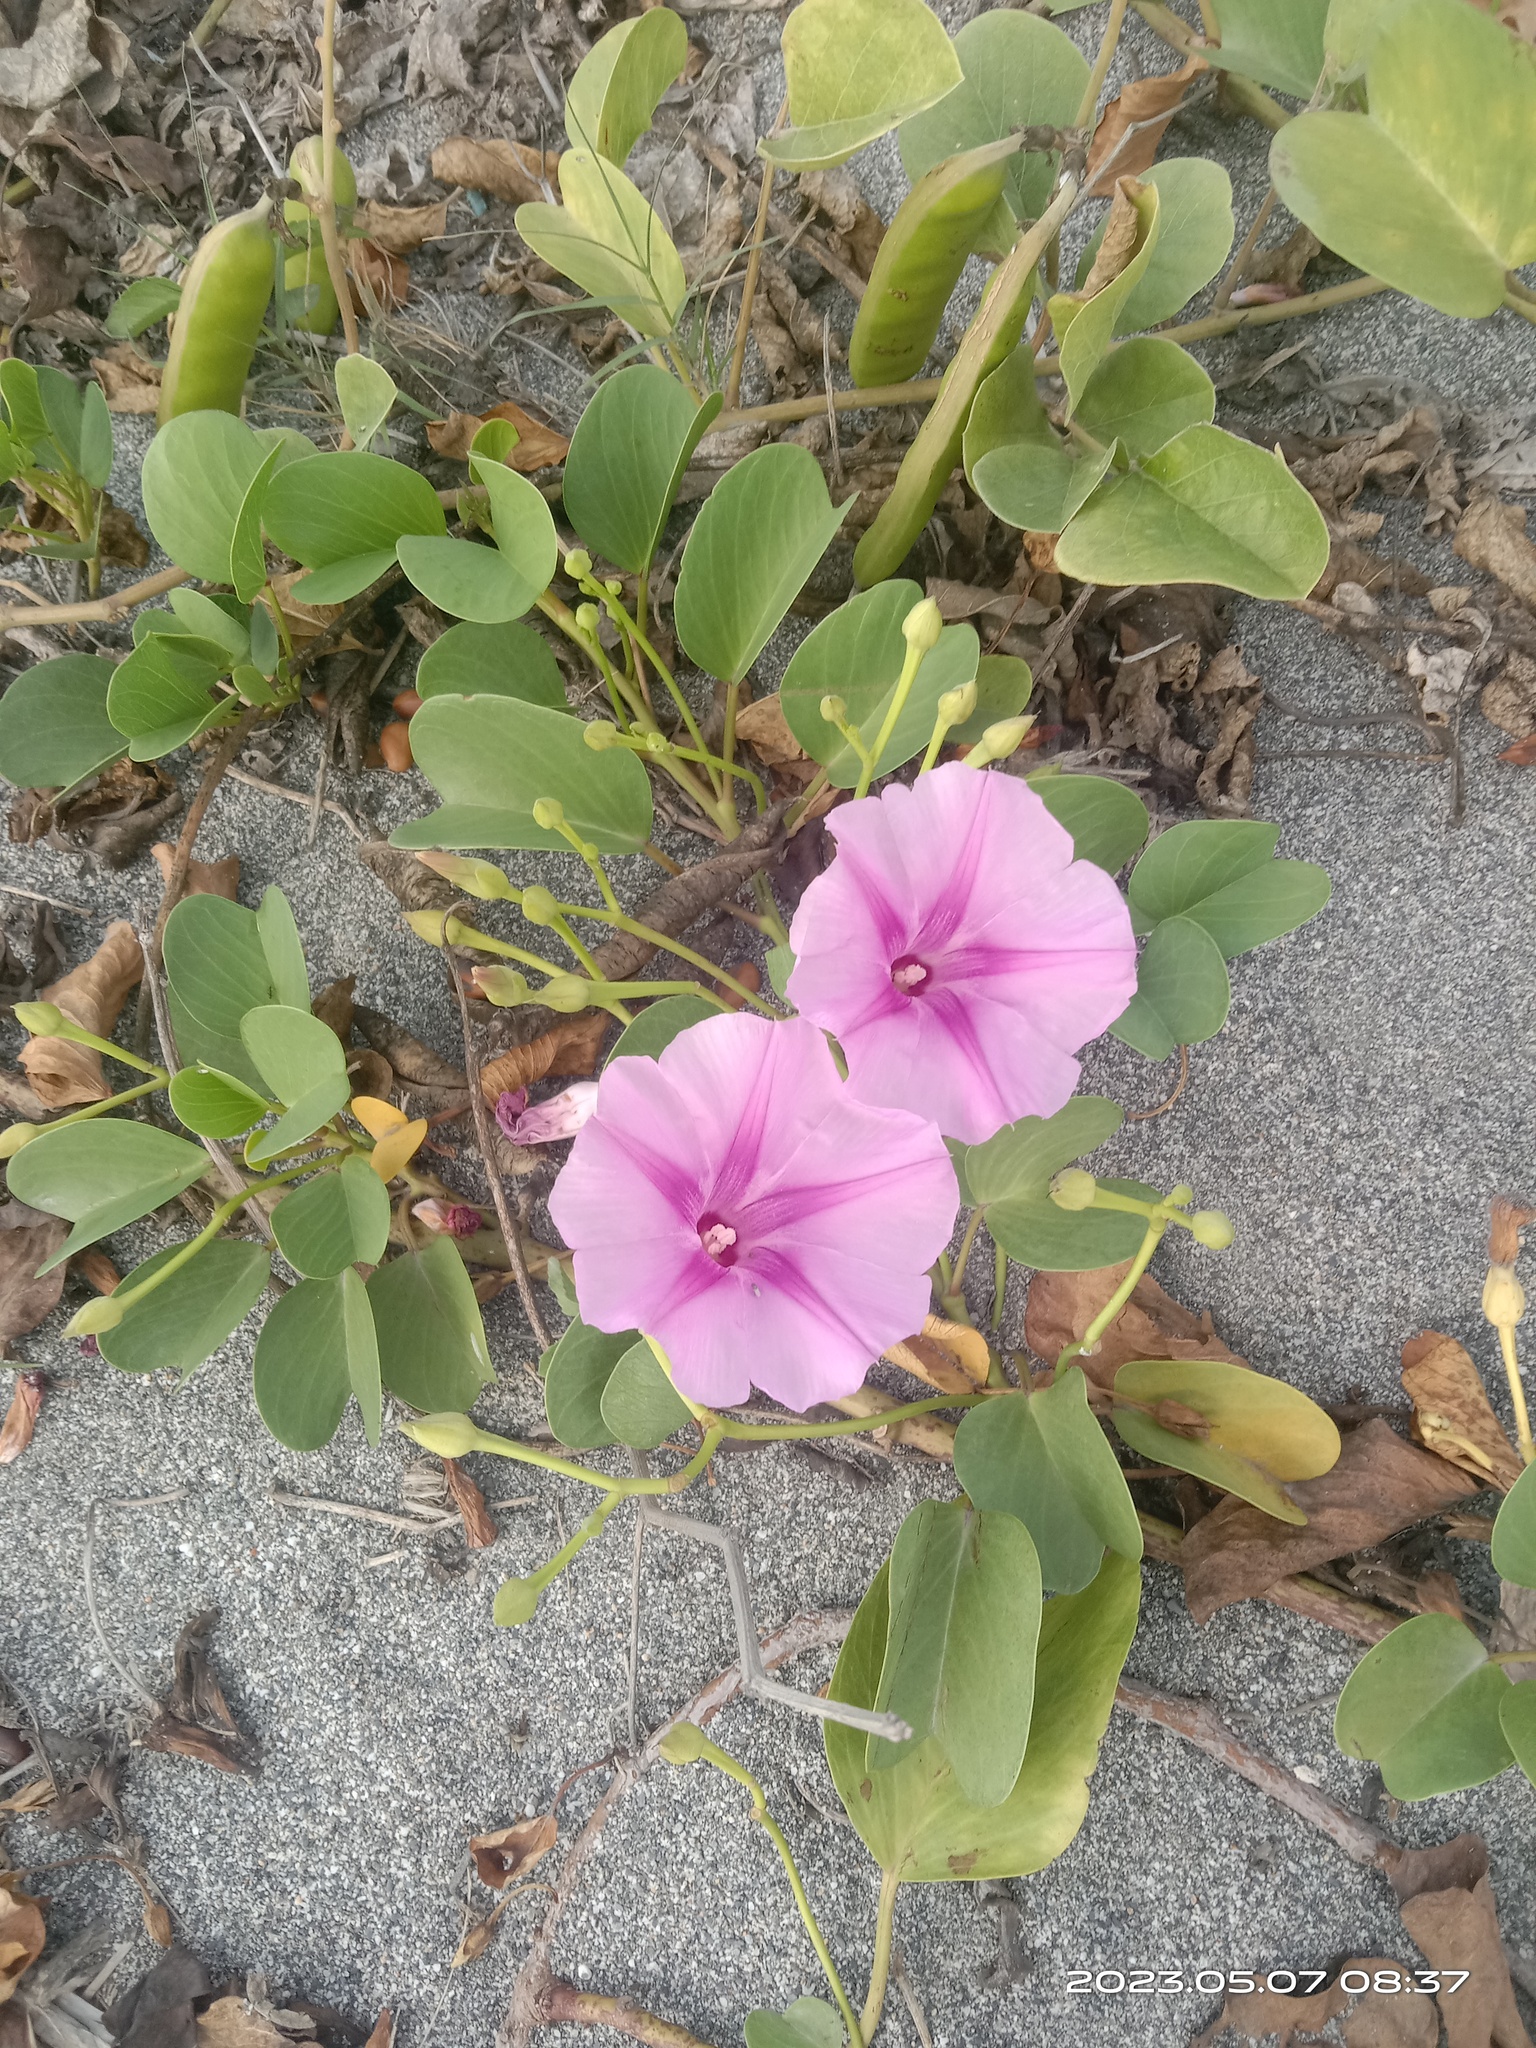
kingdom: Plantae
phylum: Tracheophyta
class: Magnoliopsida
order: Solanales
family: Convolvulaceae
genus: Ipomoea
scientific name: Ipomoea pes-caprae
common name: Beach morning glory
